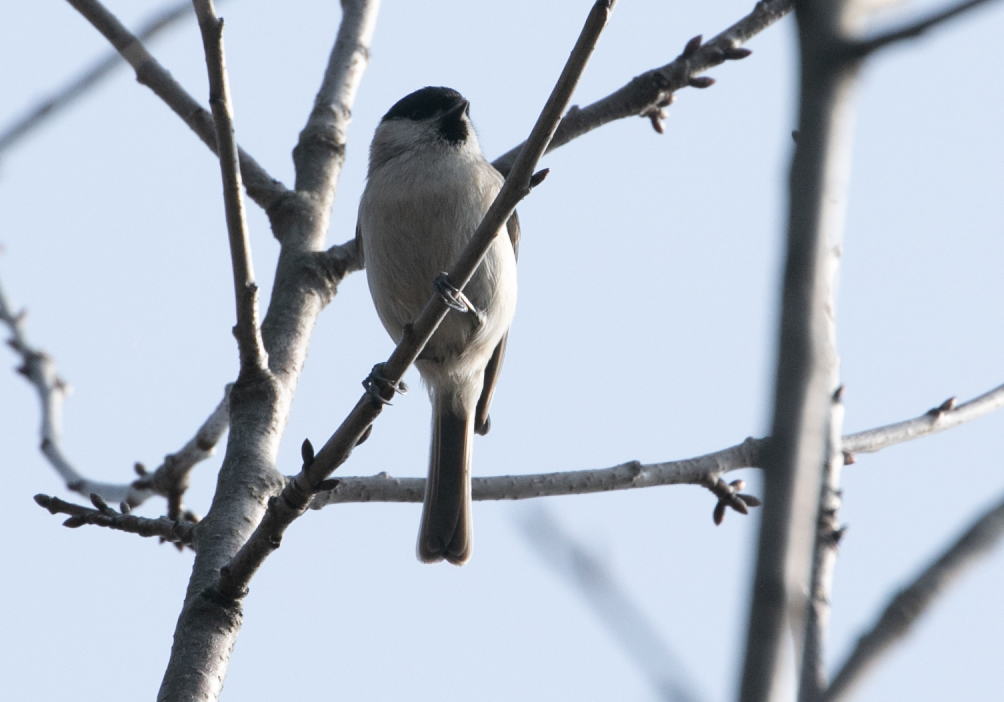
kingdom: Animalia
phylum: Chordata
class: Aves
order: Passeriformes
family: Paridae
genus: Poecile
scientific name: Poecile palustris
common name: Marsh tit
